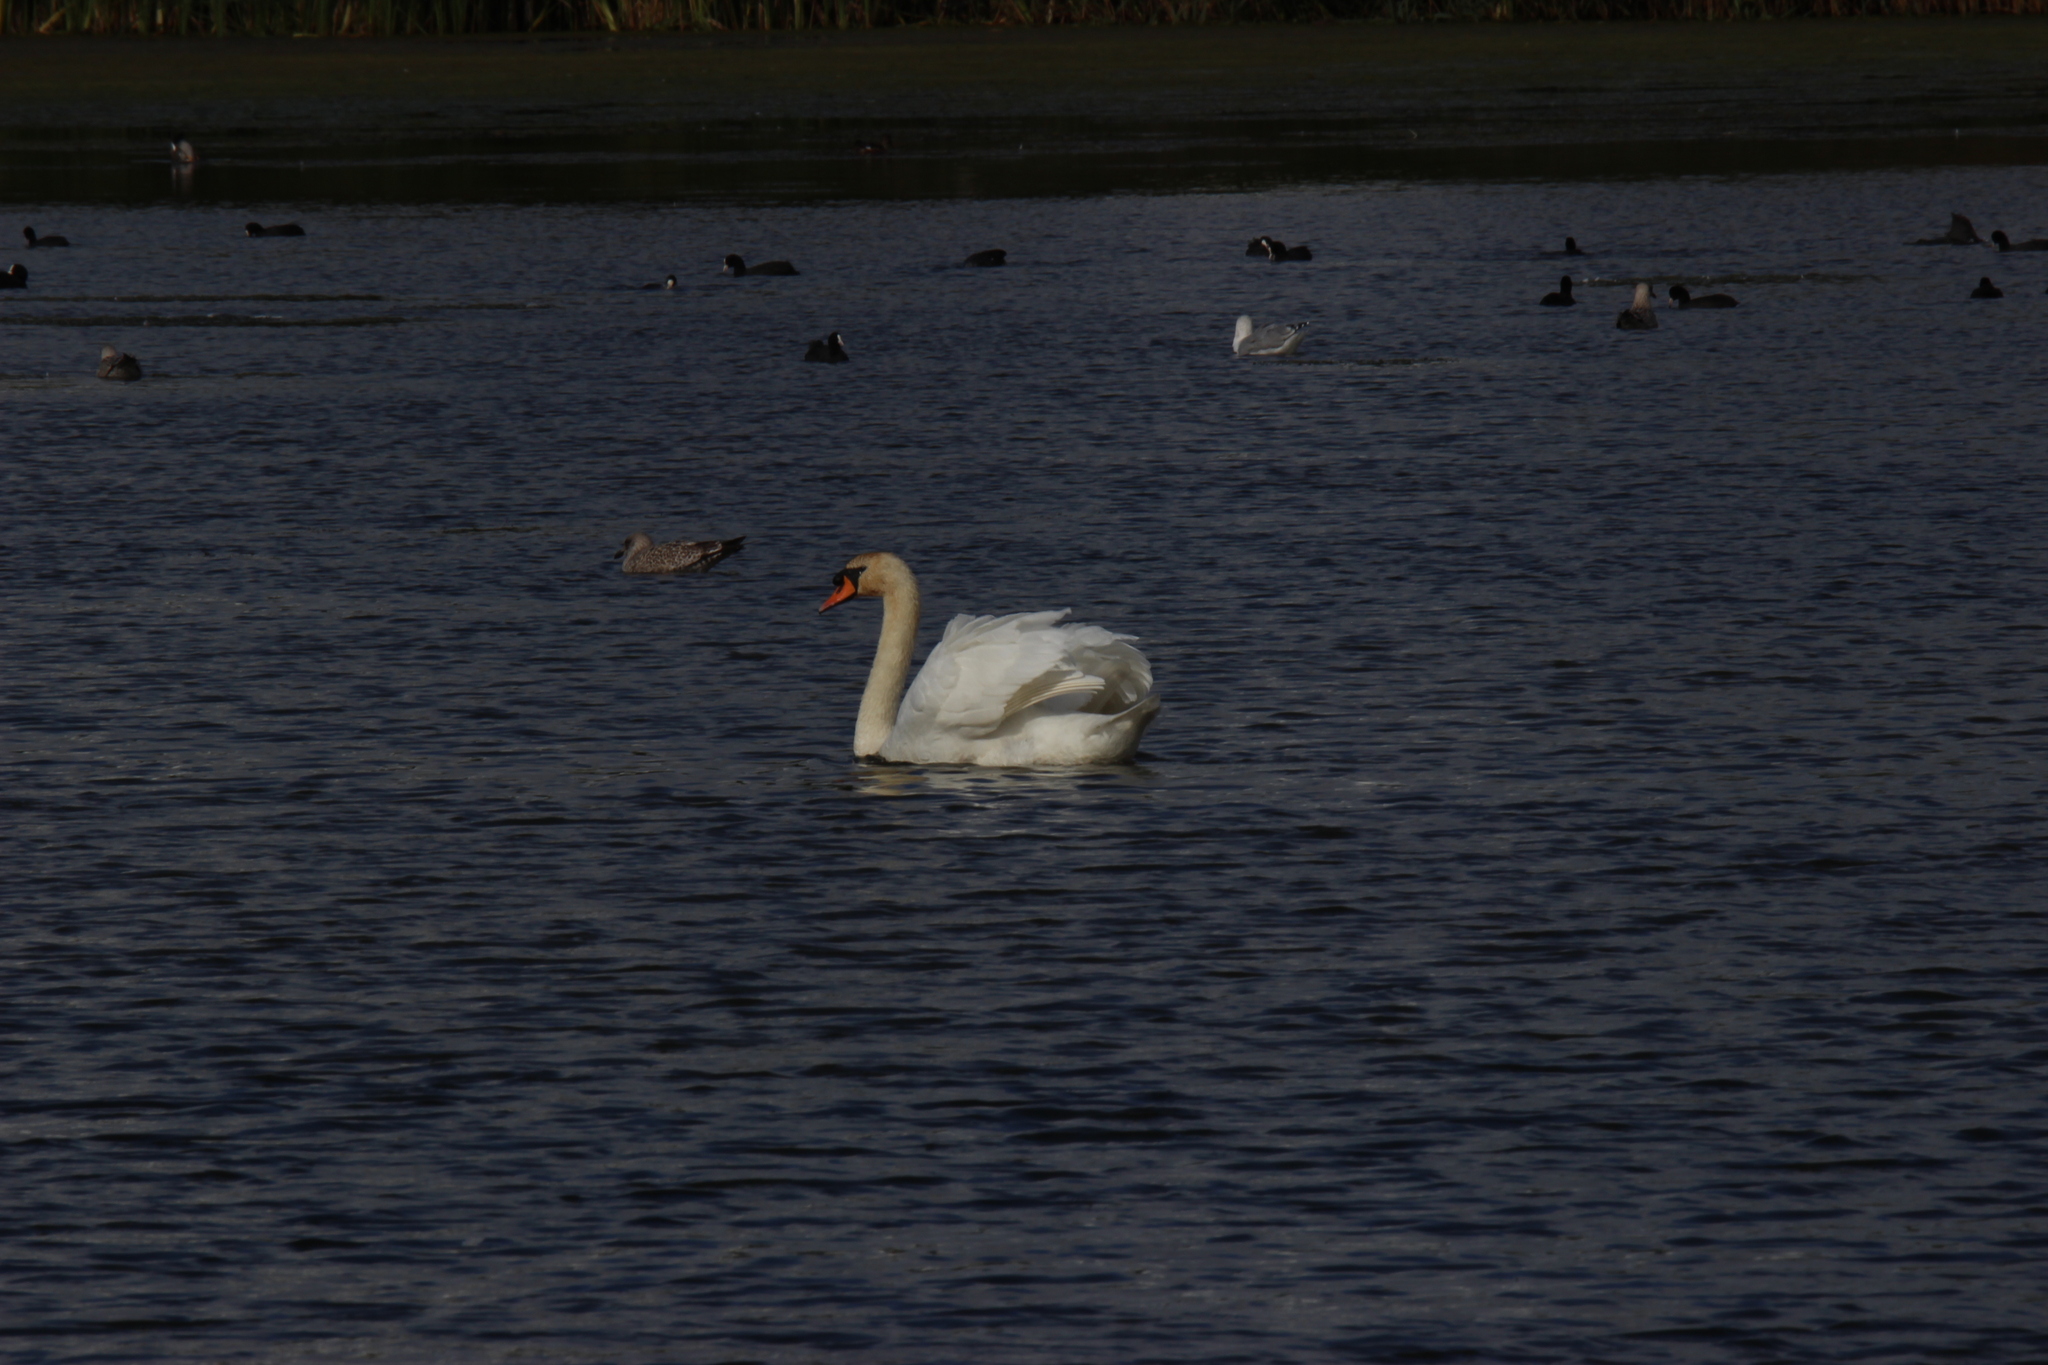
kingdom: Animalia
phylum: Chordata
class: Aves
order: Anseriformes
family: Anatidae
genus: Cygnus
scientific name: Cygnus olor
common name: Mute swan
